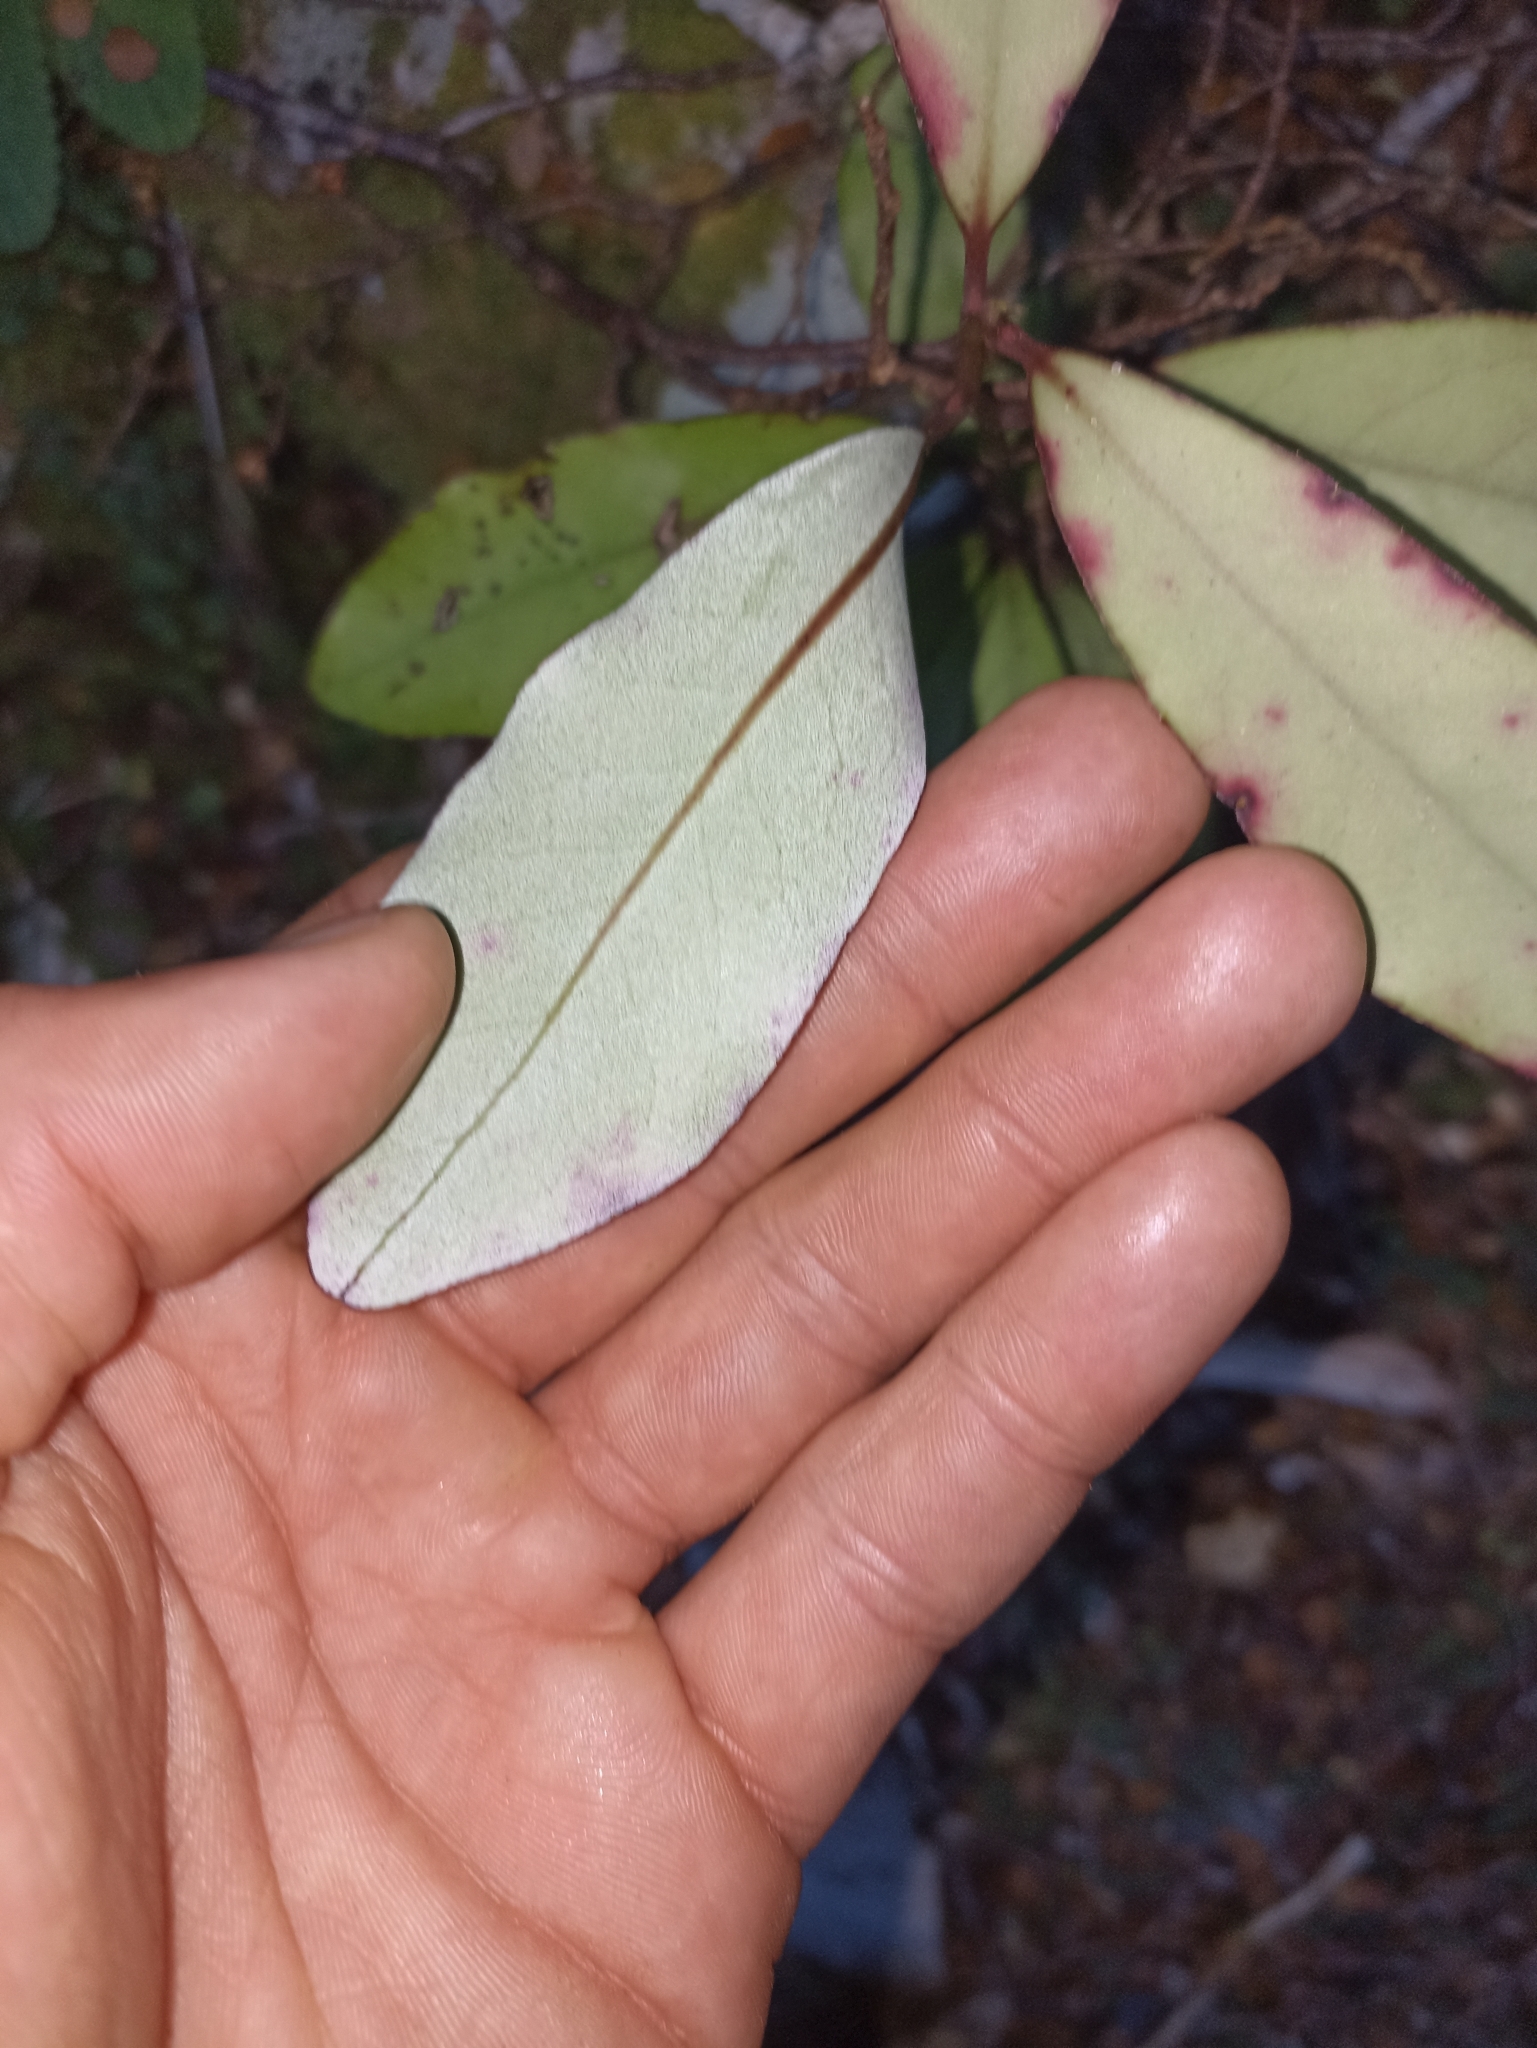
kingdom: Plantae
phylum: Tracheophyta
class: Magnoliopsida
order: Canellales
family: Winteraceae
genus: Pseudowintera
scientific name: Pseudowintera colorata
